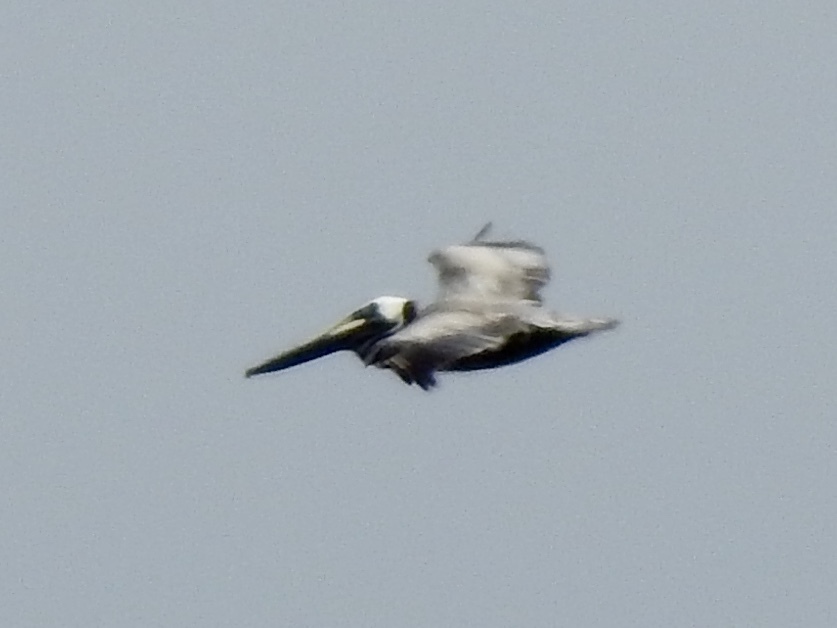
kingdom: Animalia
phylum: Chordata
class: Aves
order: Pelecaniformes
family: Pelecanidae
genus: Pelecanus
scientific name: Pelecanus occidentalis
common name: Brown pelican
